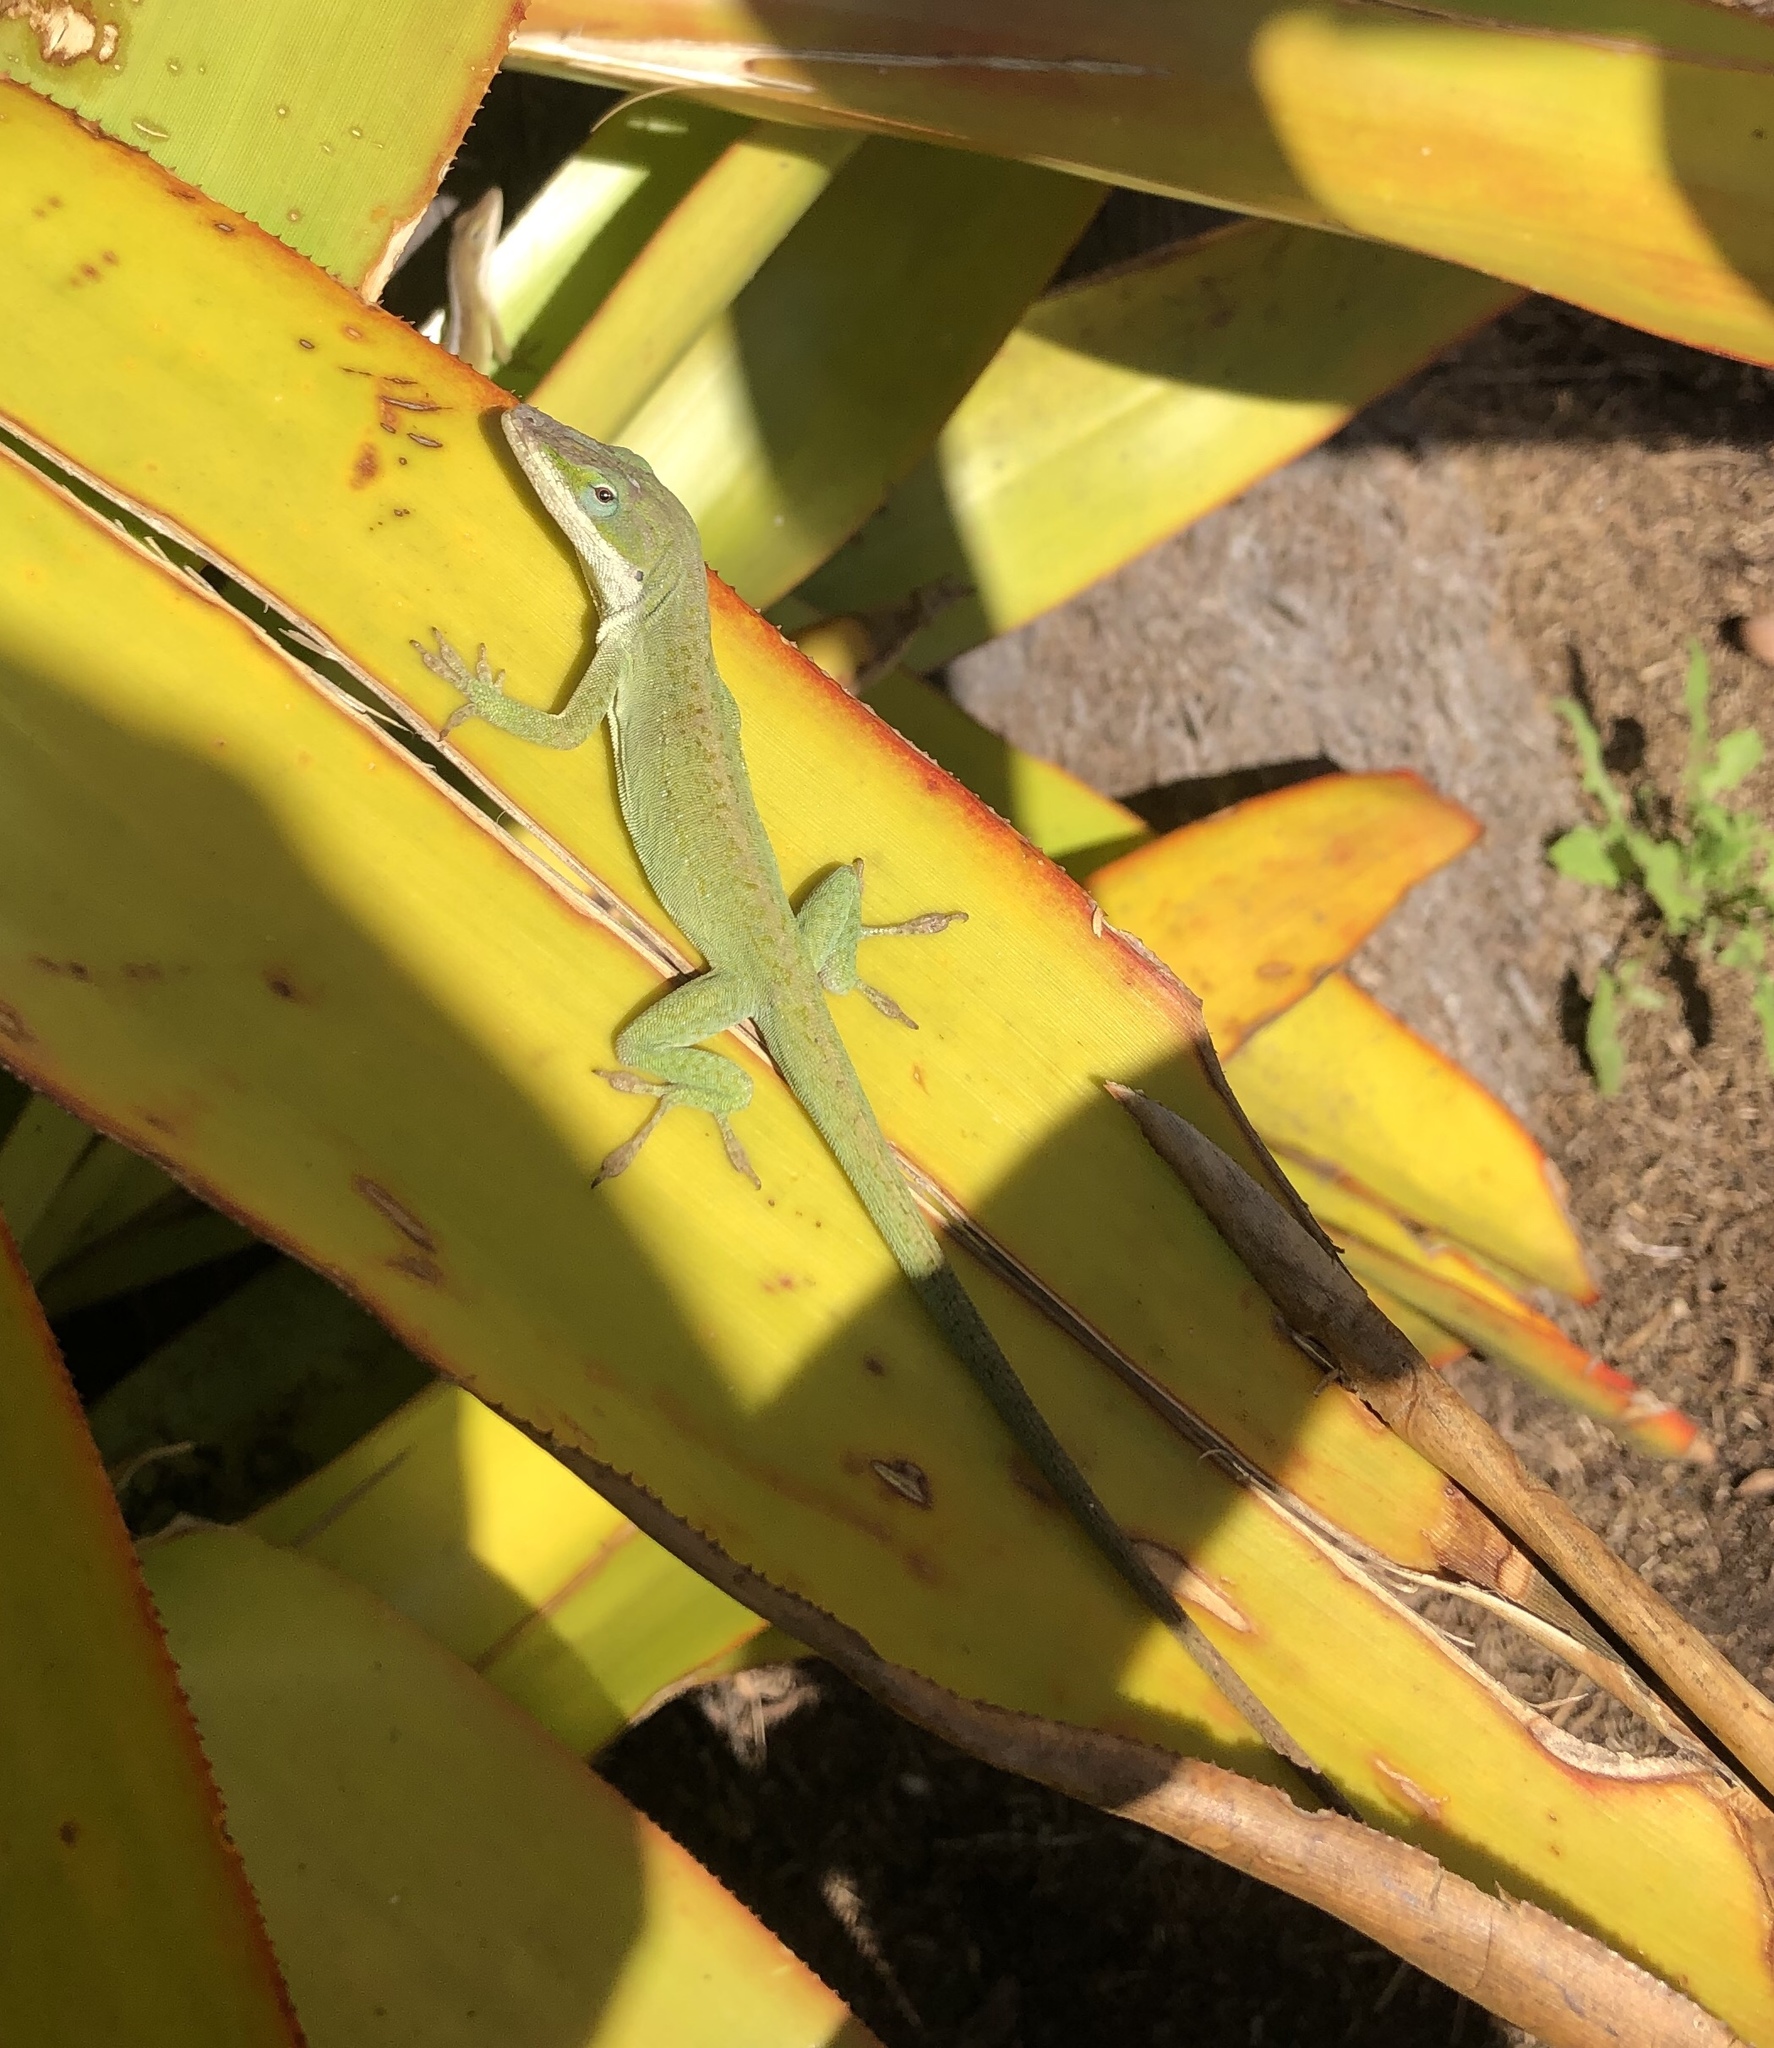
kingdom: Animalia
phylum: Chordata
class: Squamata
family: Dactyloidae
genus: Anolis
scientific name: Anolis carolinensis
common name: Green anole
